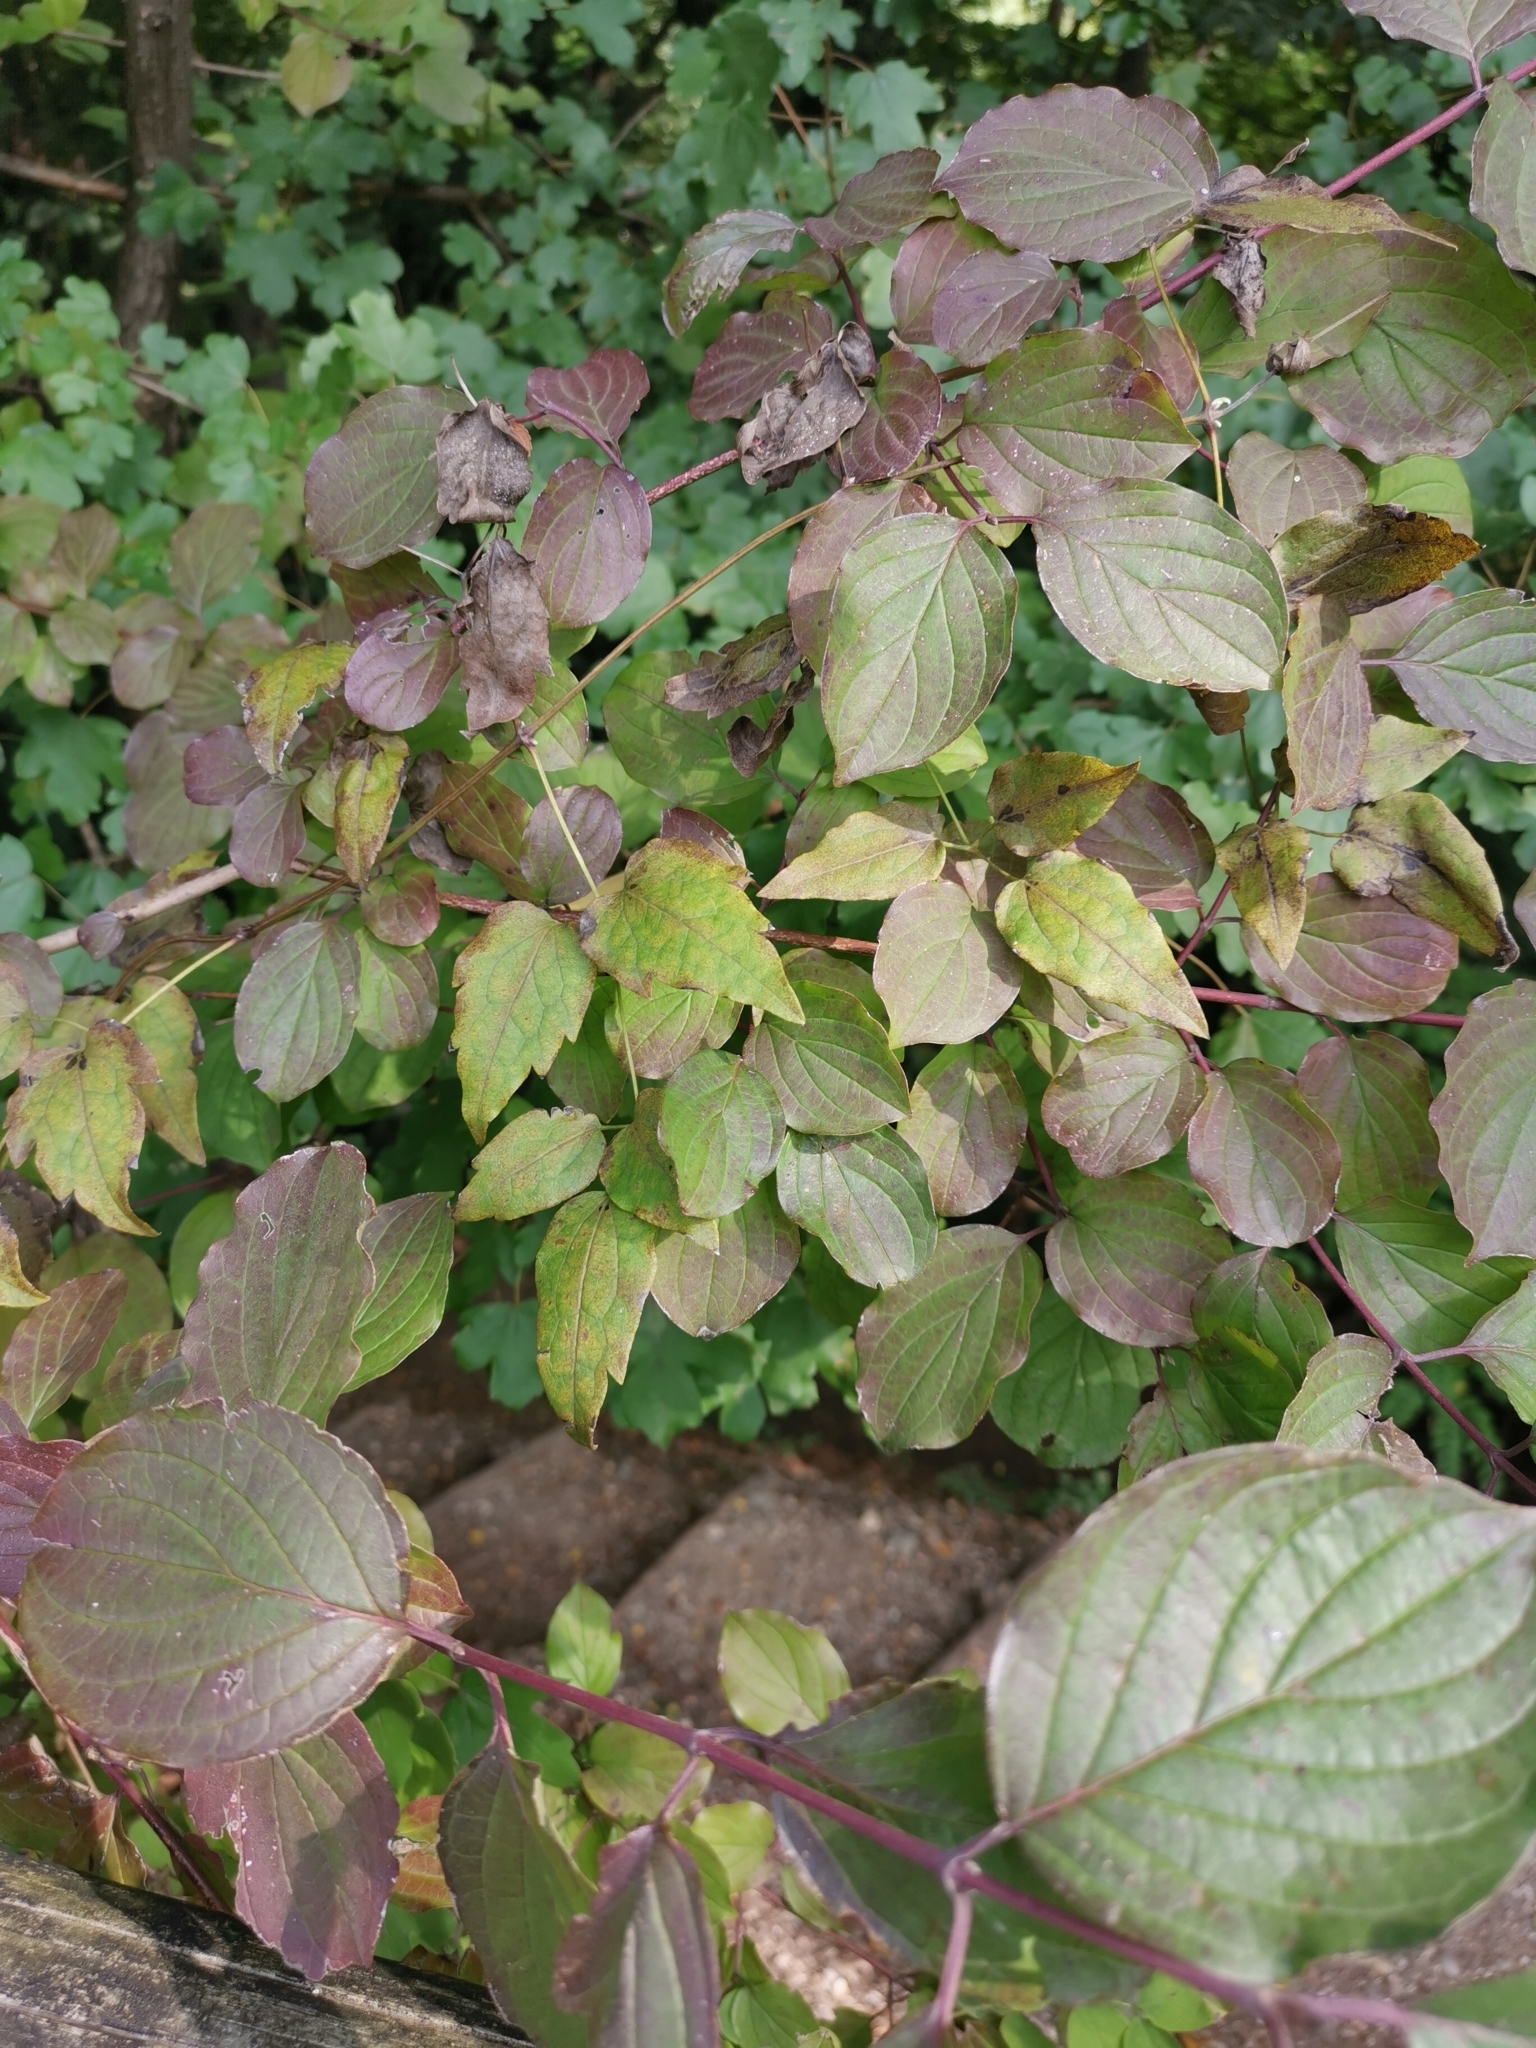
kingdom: Plantae
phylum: Tracheophyta
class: Magnoliopsida
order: Cornales
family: Cornaceae
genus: Cornus
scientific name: Cornus sanguinea
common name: Dogwood
